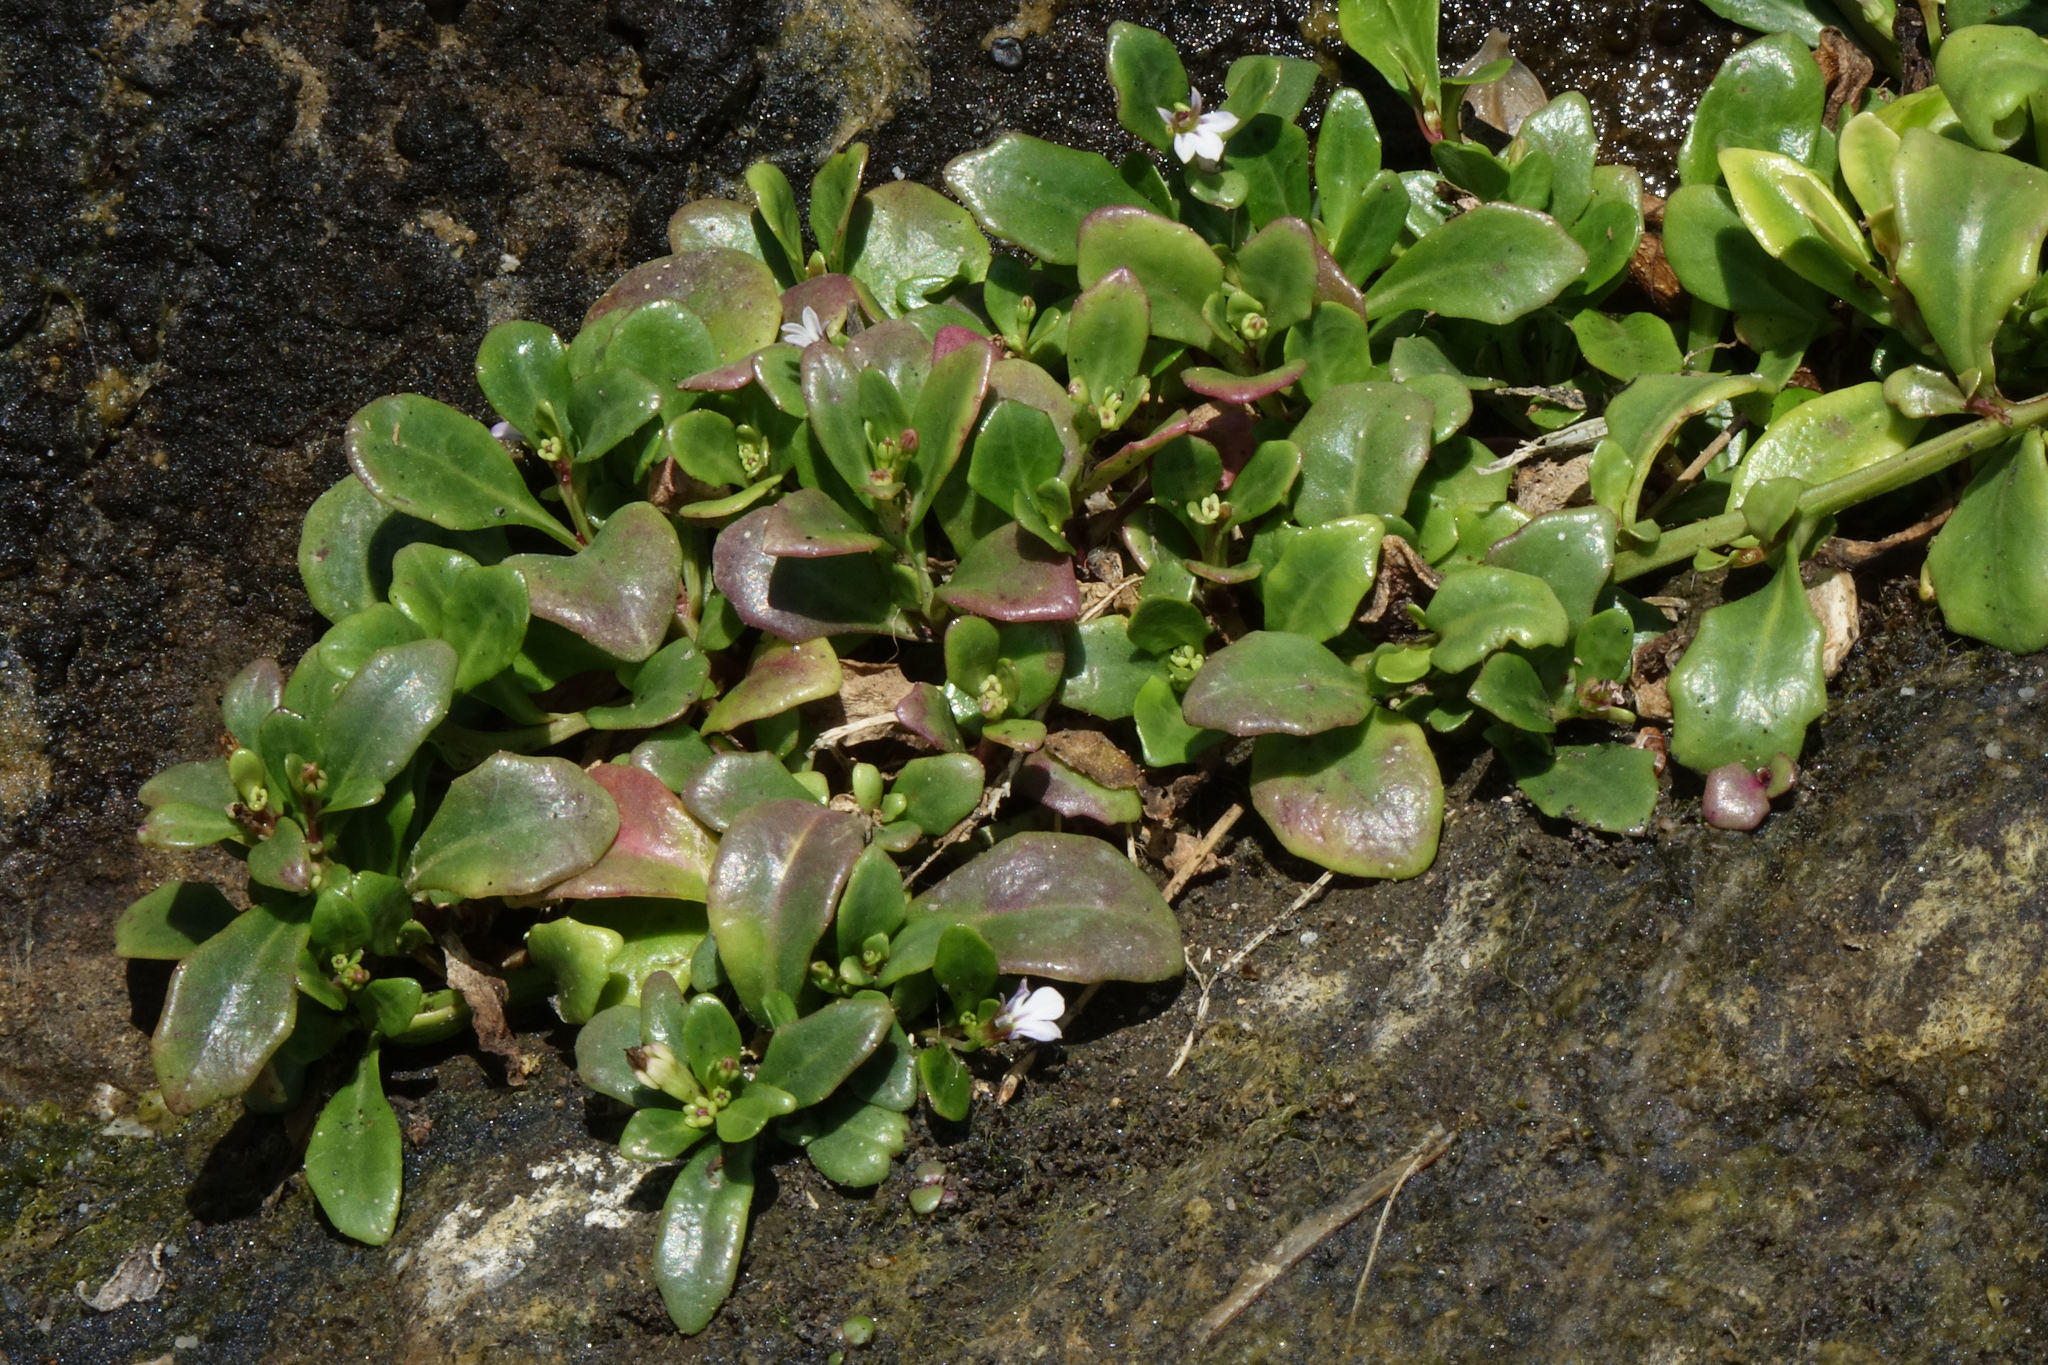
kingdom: Plantae
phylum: Tracheophyta
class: Magnoliopsida
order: Asterales
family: Campanulaceae
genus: Lobelia
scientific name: Lobelia anceps
